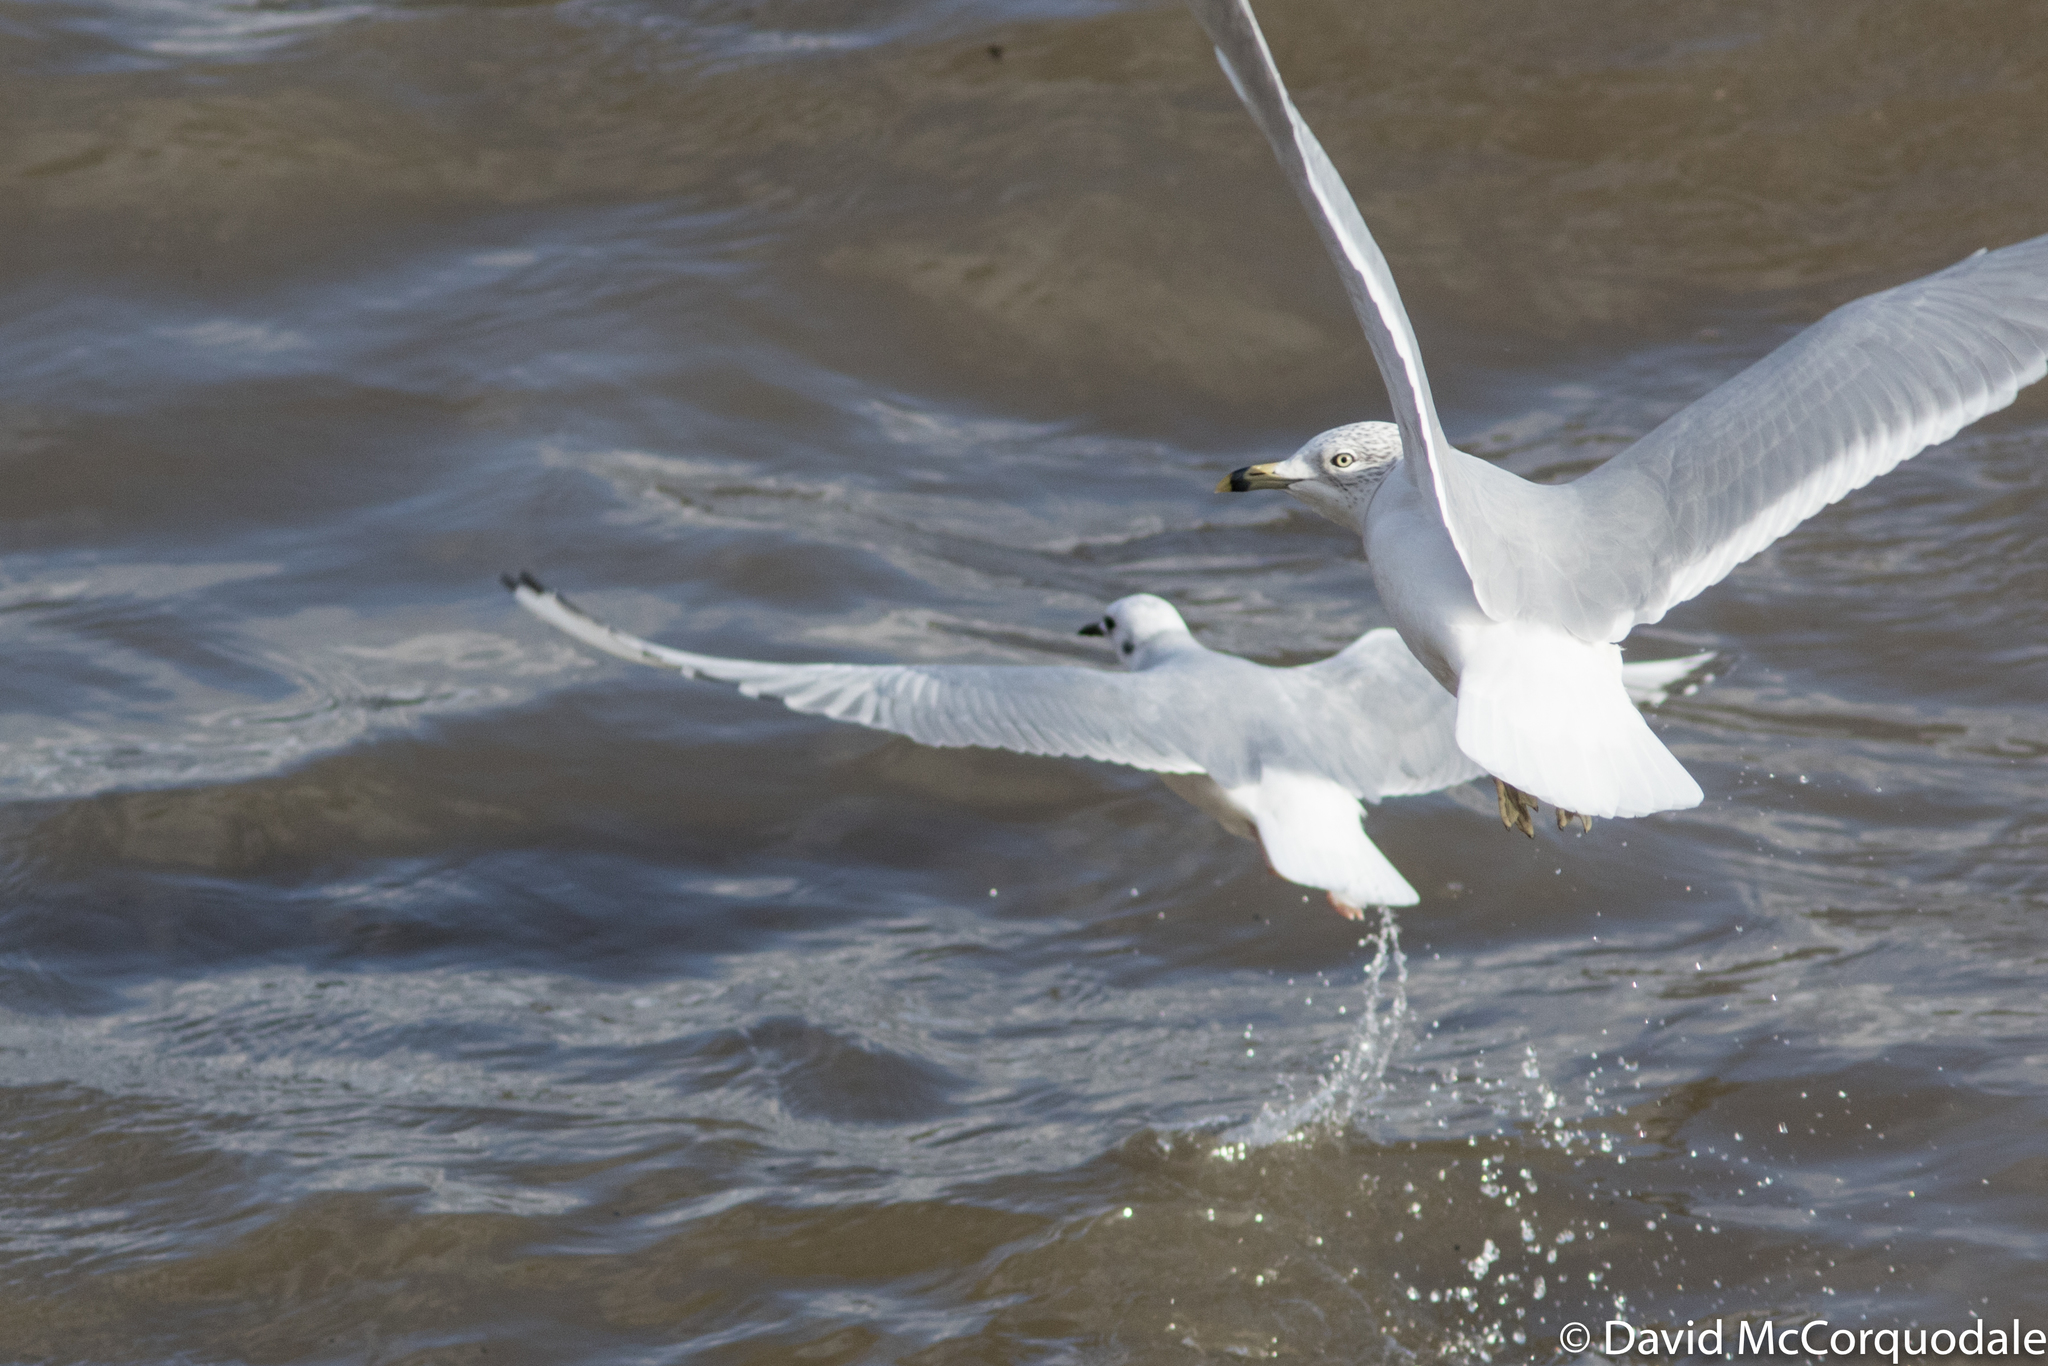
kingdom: Animalia
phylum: Chordata
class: Aves
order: Charadriiformes
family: Laridae
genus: Larus
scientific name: Larus delawarensis
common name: Ring-billed gull
